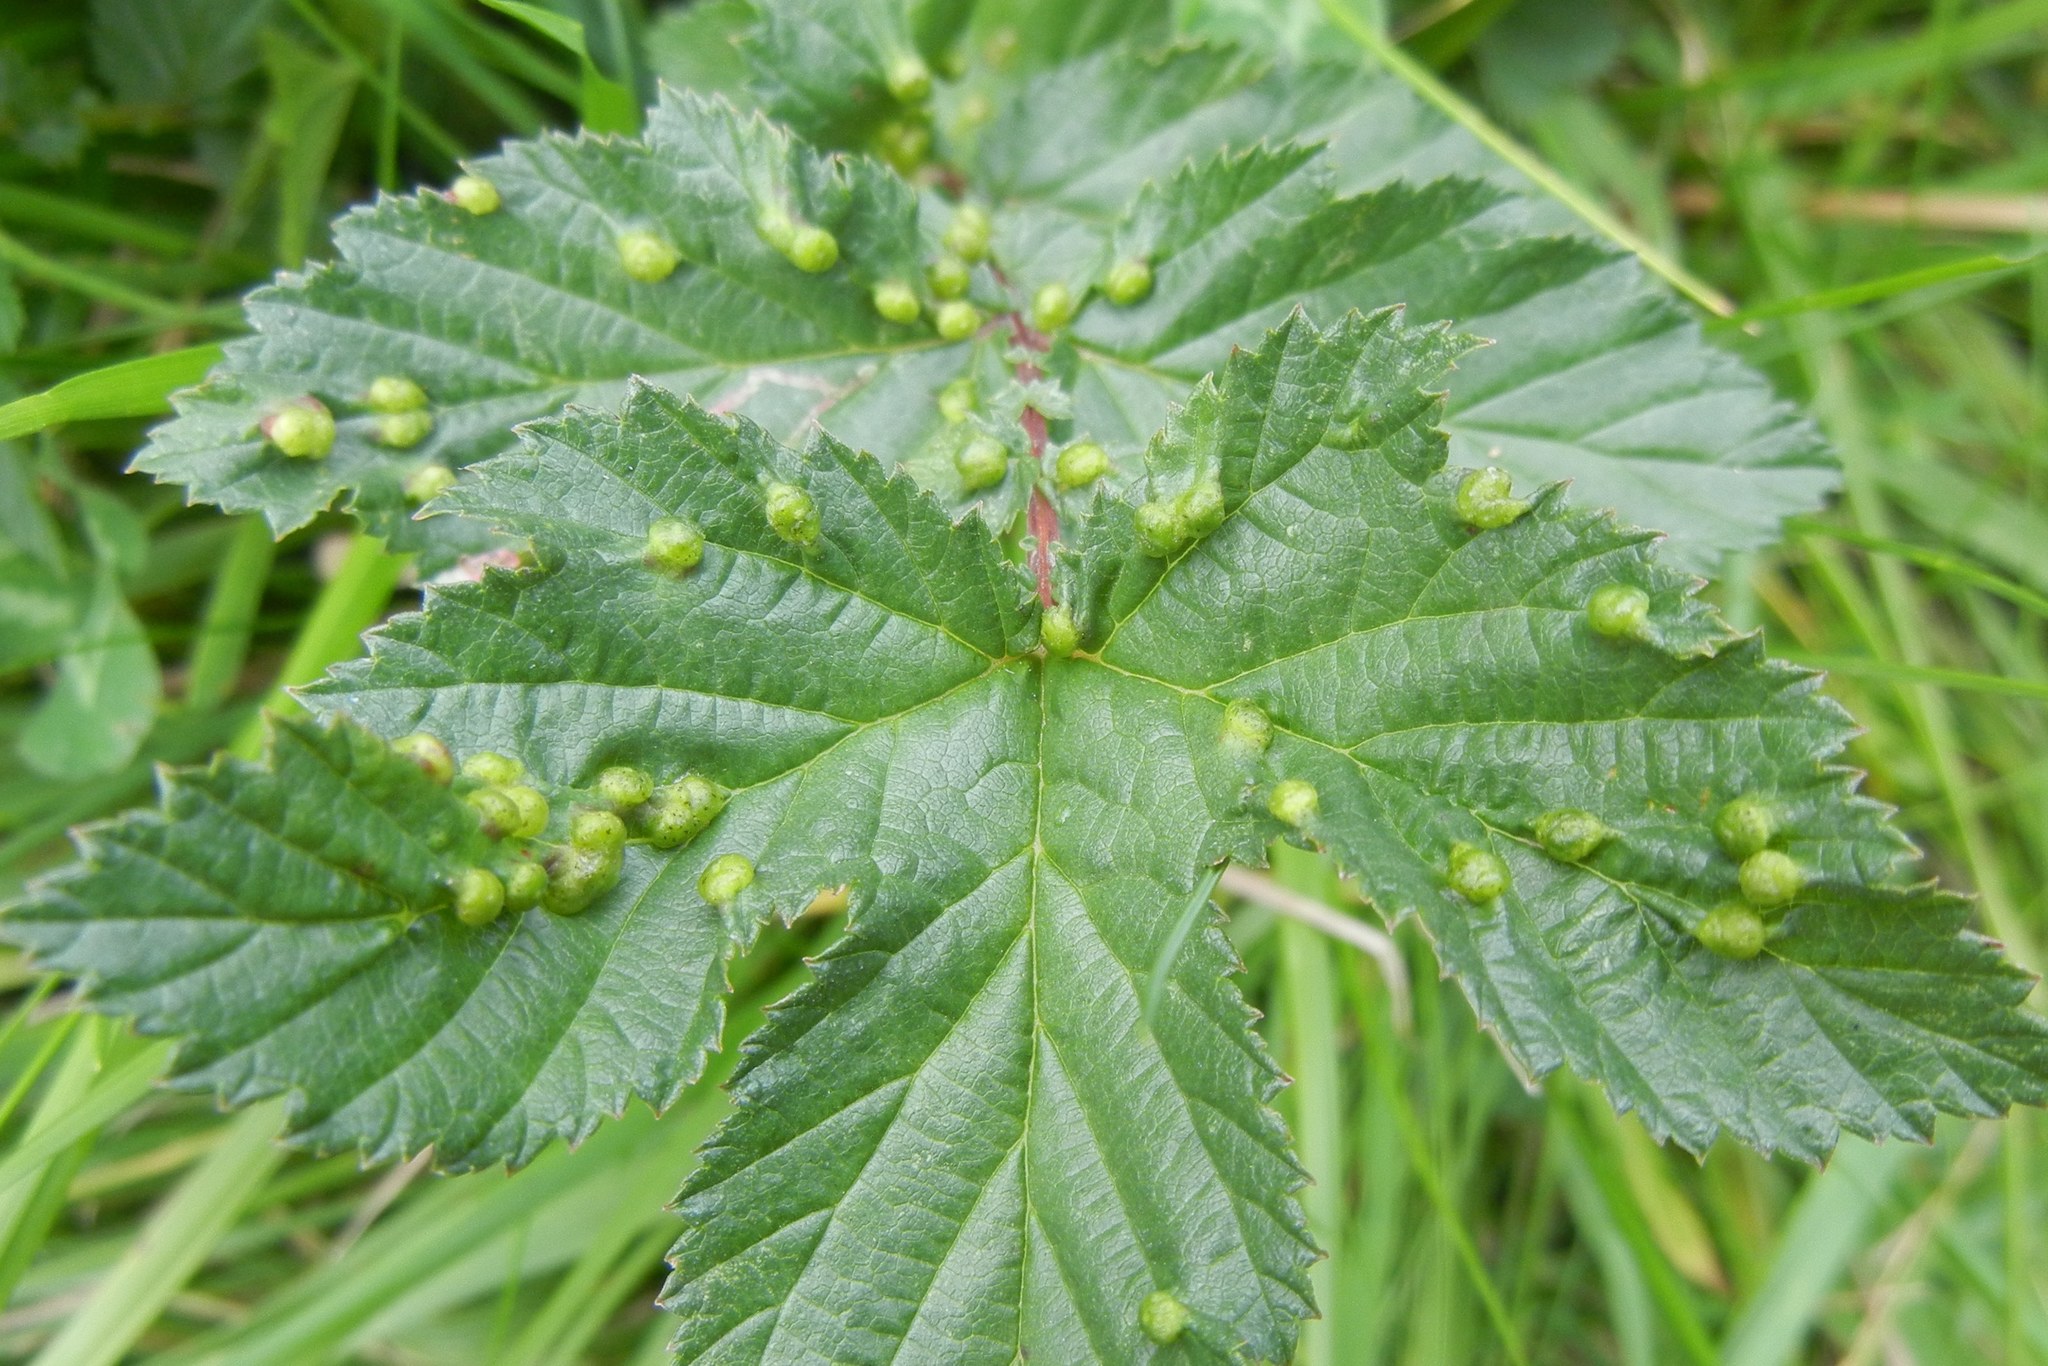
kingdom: Animalia
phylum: Arthropoda
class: Insecta
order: Diptera
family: Cecidomyiidae
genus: Dasineura
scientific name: Dasineura ulmaria
